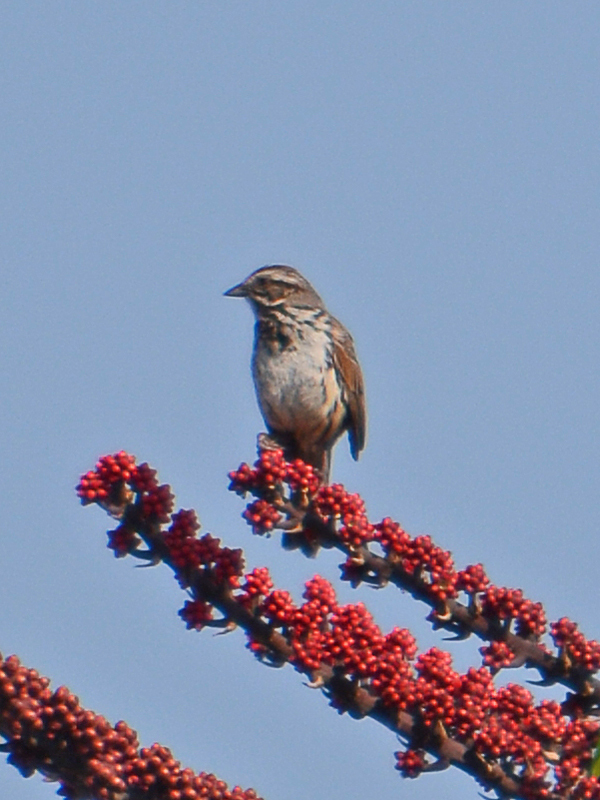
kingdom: Animalia
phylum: Chordata
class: Aves
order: Passeriformes
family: Passerellidae
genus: Melospiza
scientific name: Melospiza melodia
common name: Song sparrow
